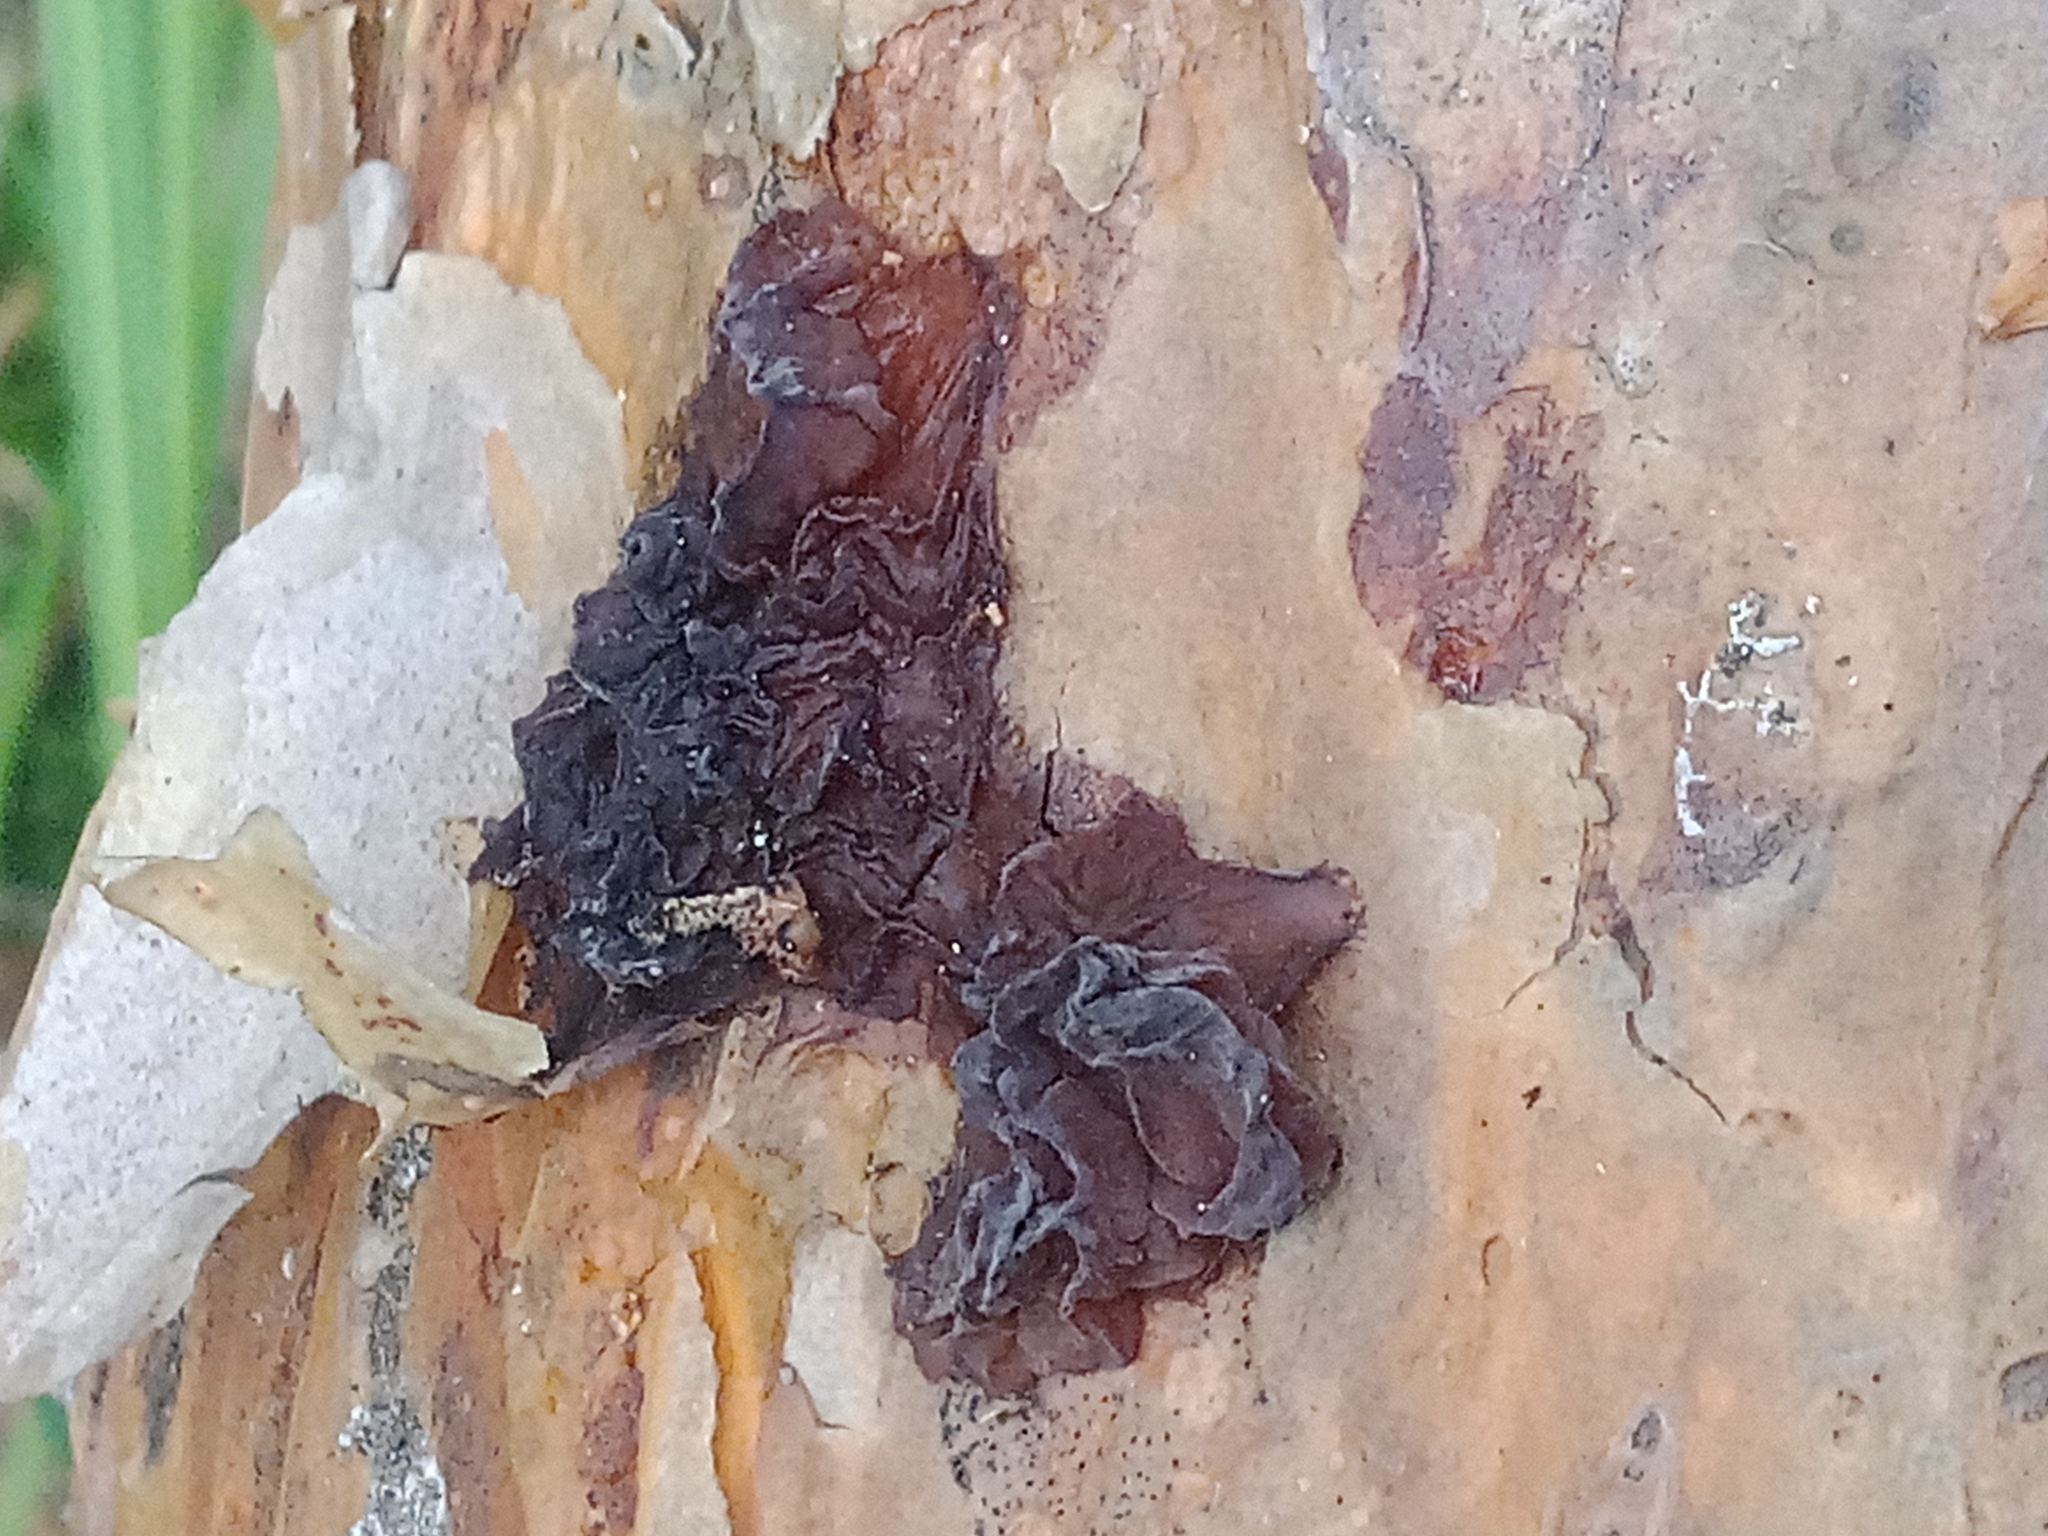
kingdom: Fungi
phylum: Basidiomycota
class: Agaricomycetes
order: Auriculariales
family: Auriculariaceae
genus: Exidia
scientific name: Exidia saccharina
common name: Pine jelly
